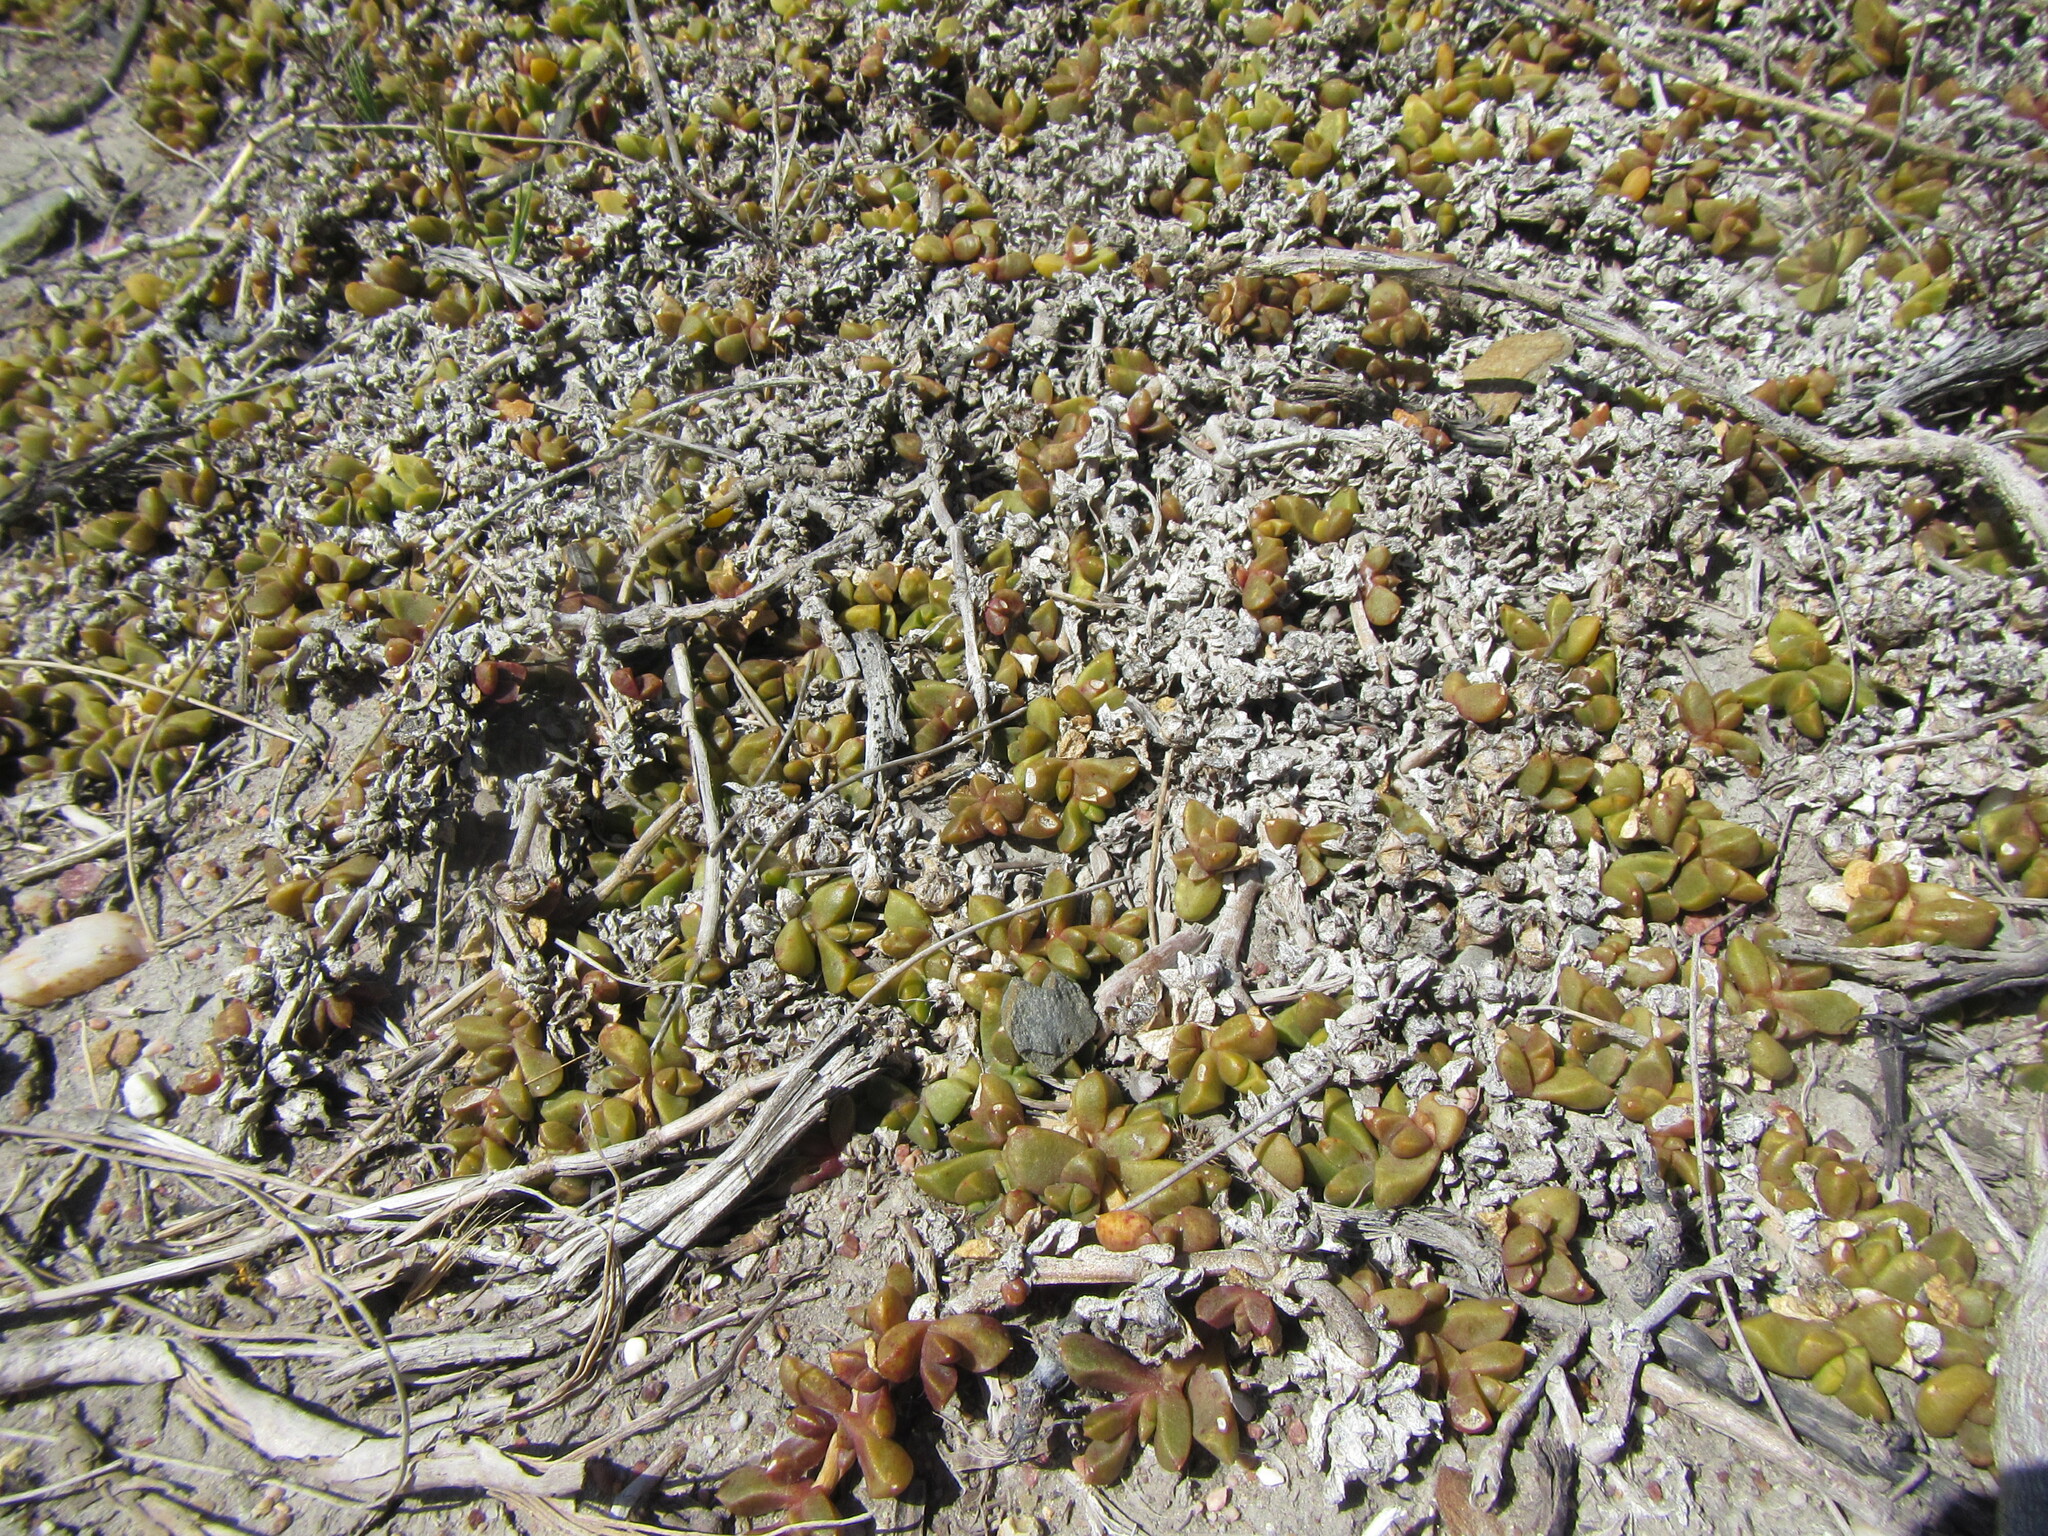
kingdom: Plantae
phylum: Tracheophyta
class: Magnoliopsida
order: Caryophyllales
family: Aizoaceae
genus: Disphyma
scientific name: Disphyma dunsdonii
